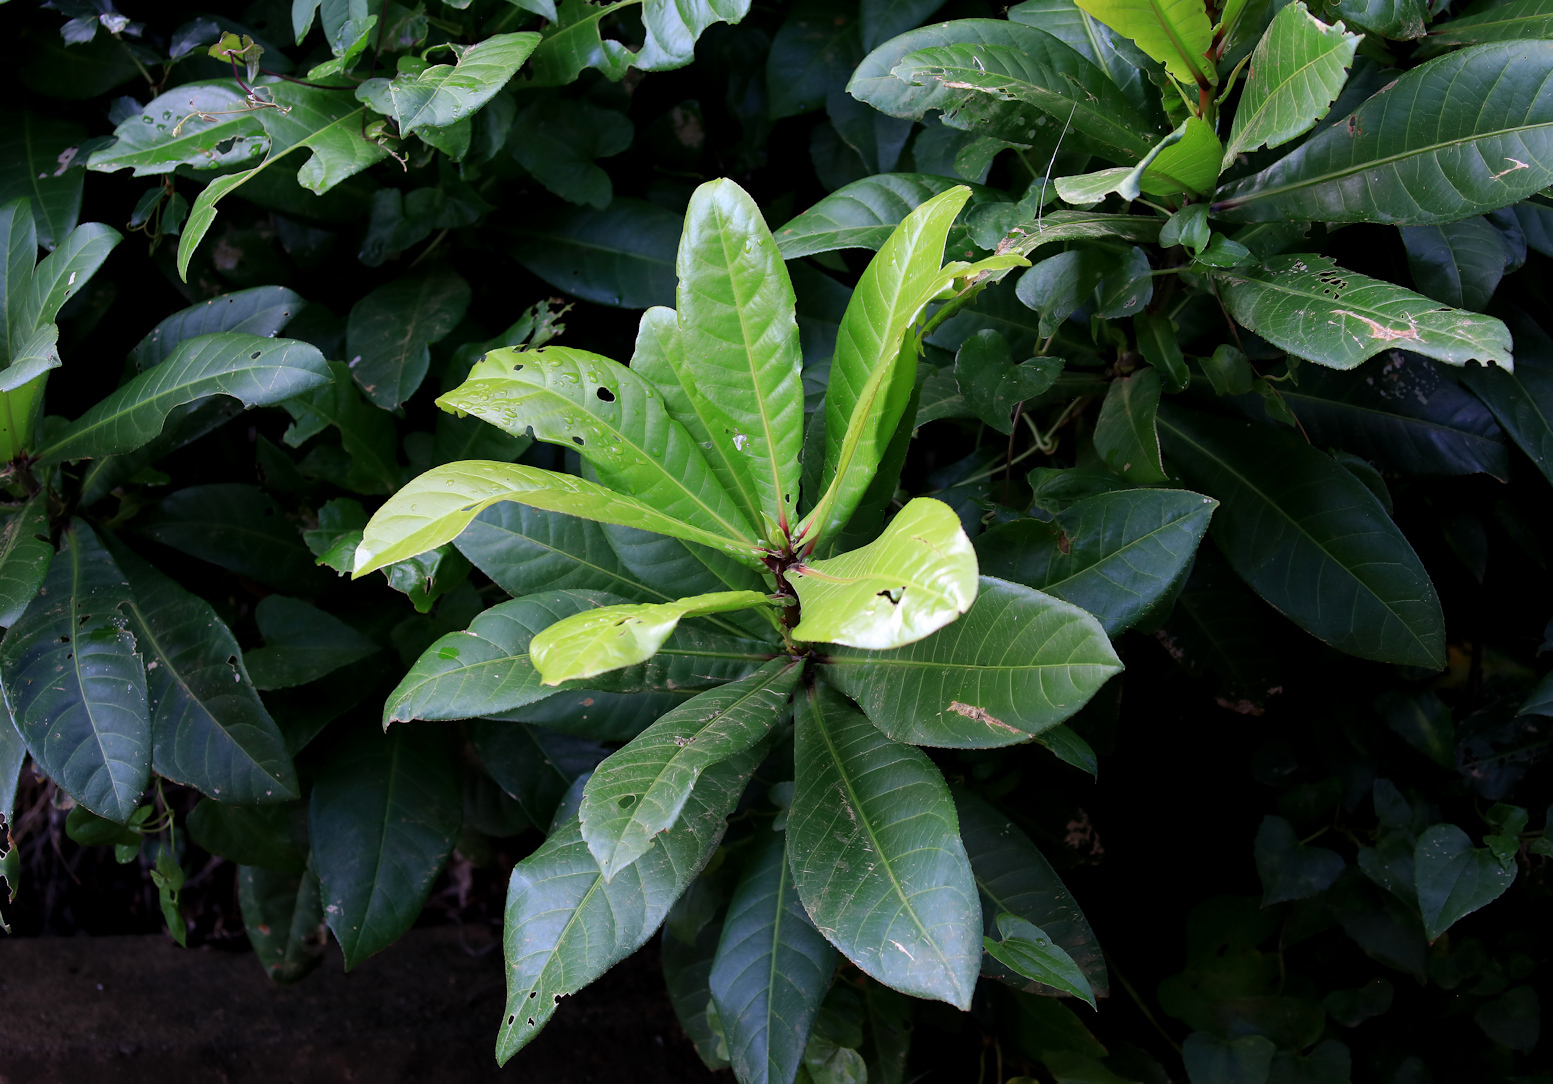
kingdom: Plantae
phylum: Tracheophyta
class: Magnoliopsida
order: Ericales
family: Lecythidaceae
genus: Barringtonia
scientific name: Barringtonia racemosa
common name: Brackwater mangrove
